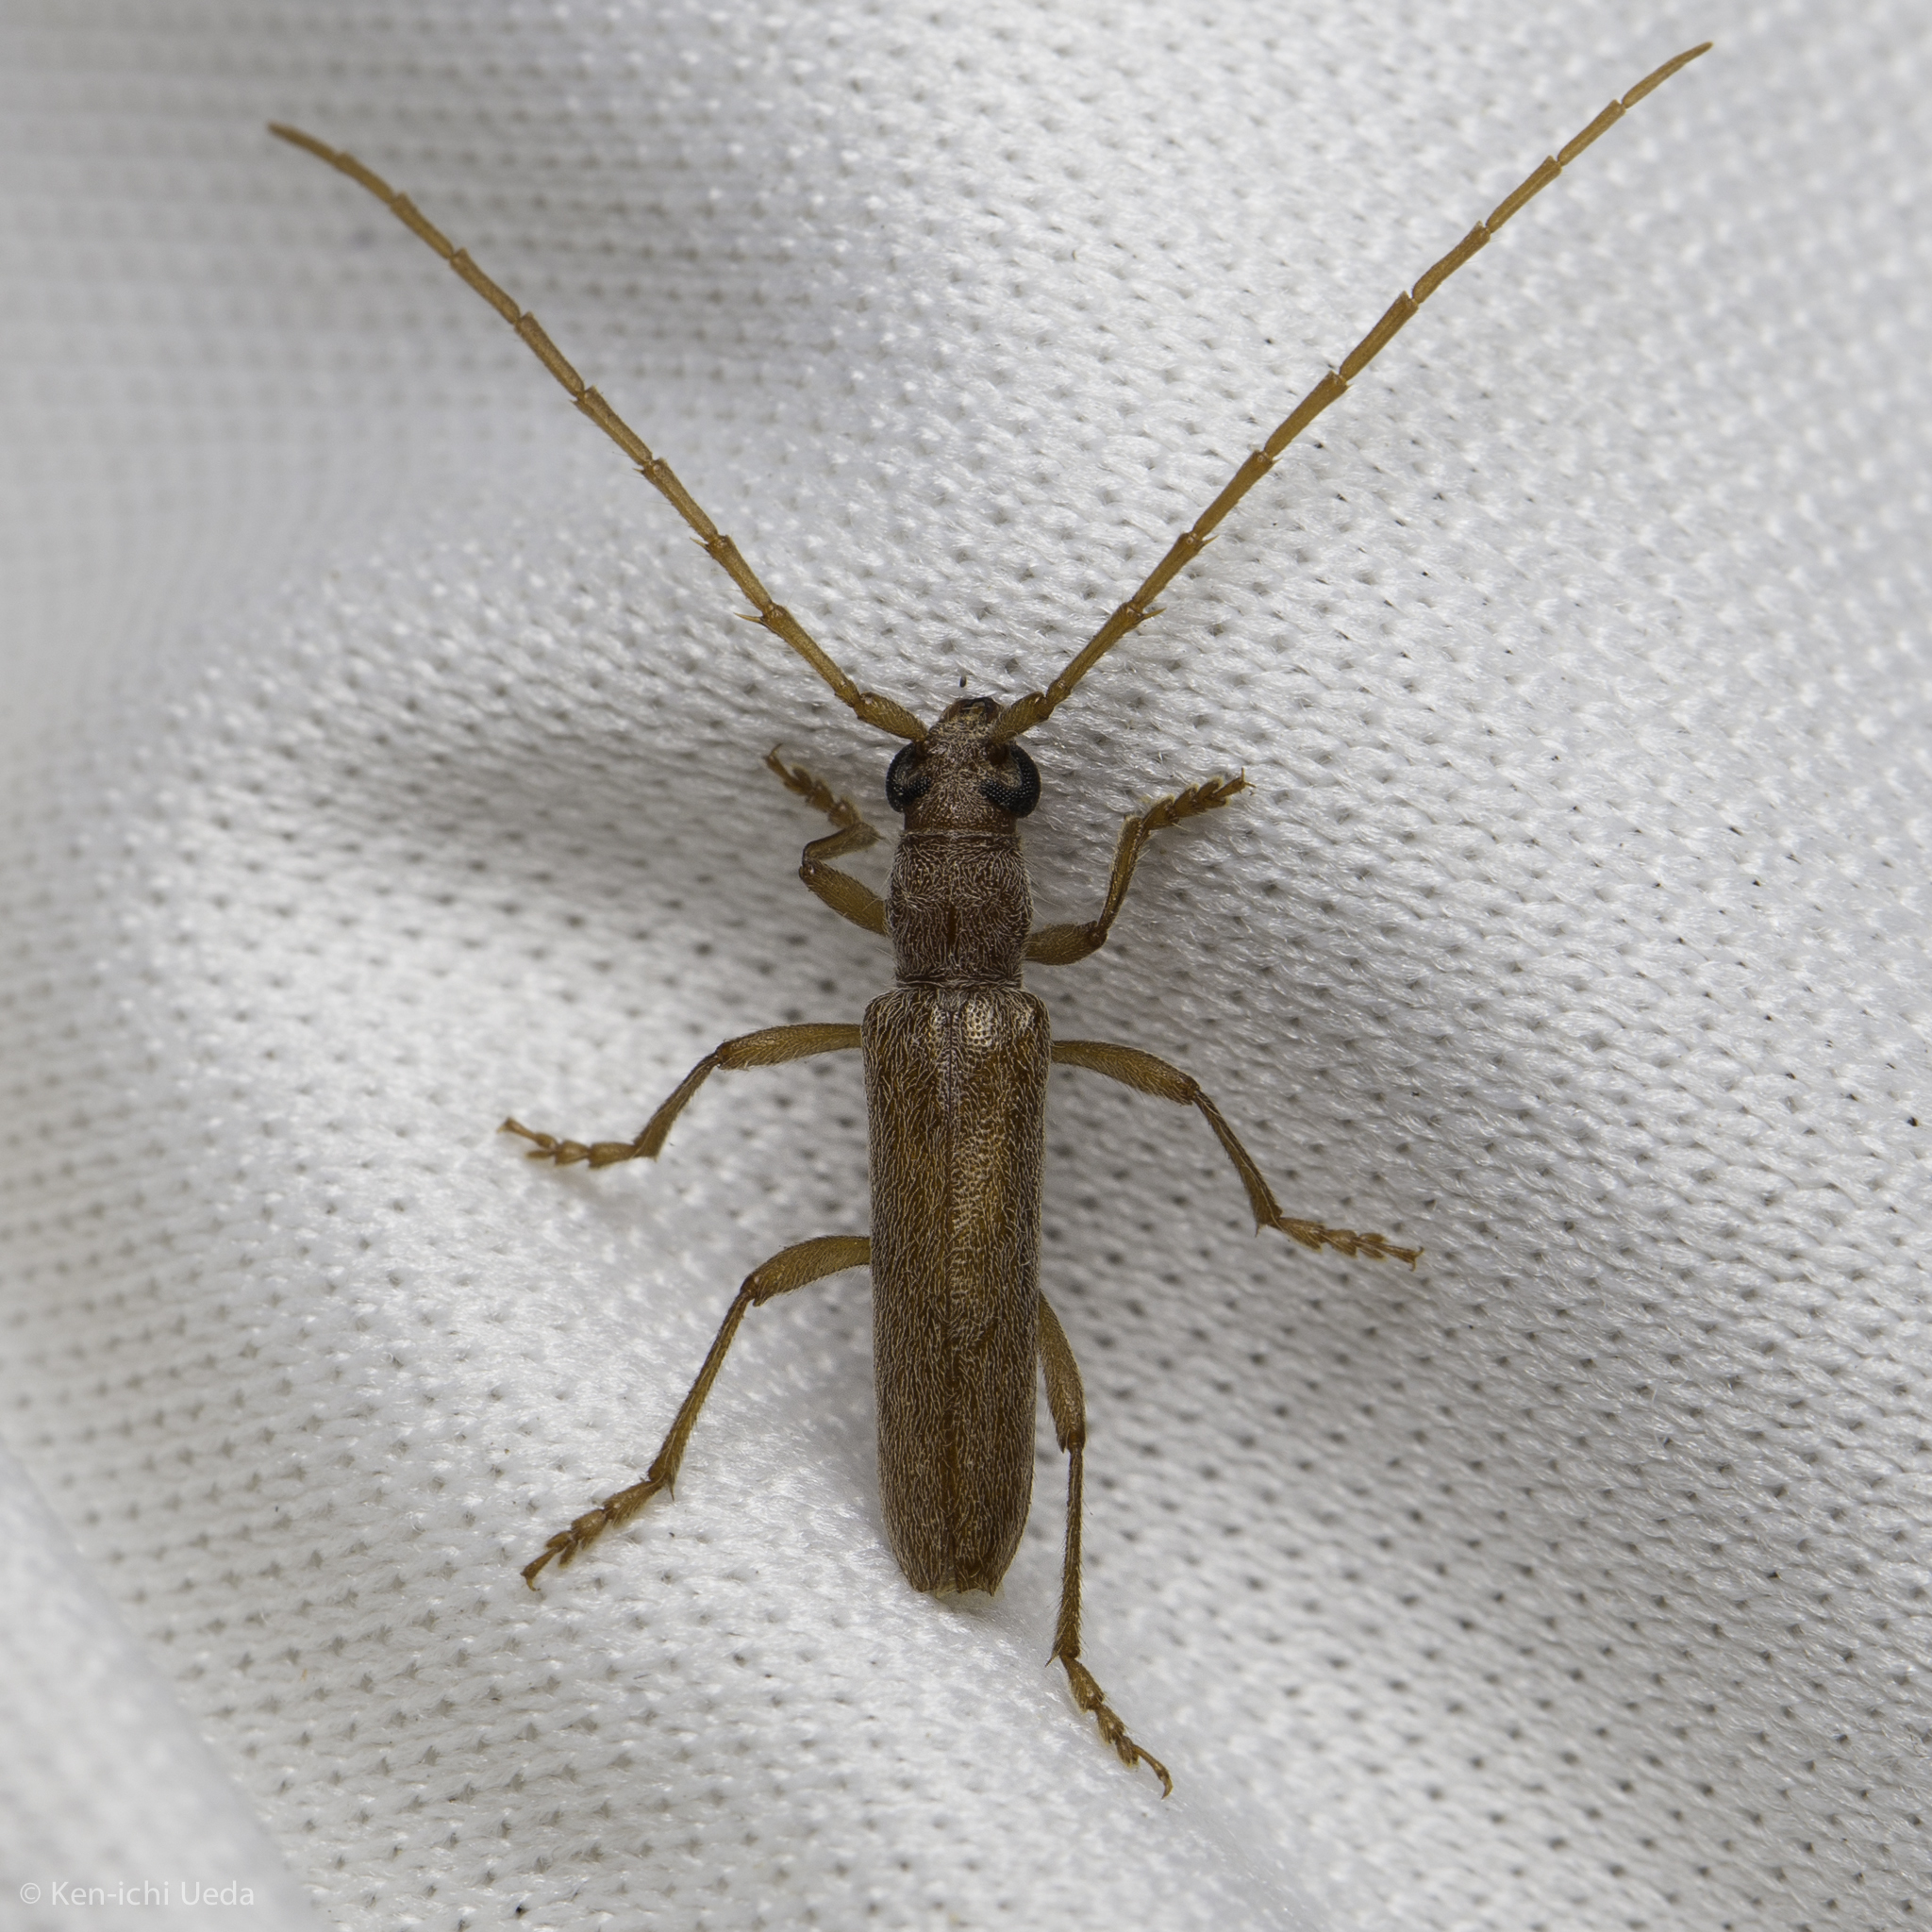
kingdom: Animalia
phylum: Arthropoda
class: Insecta
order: Coleoptera
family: Cerambycidae
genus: Aneflomorpha
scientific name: Aneflomorpha lineare
